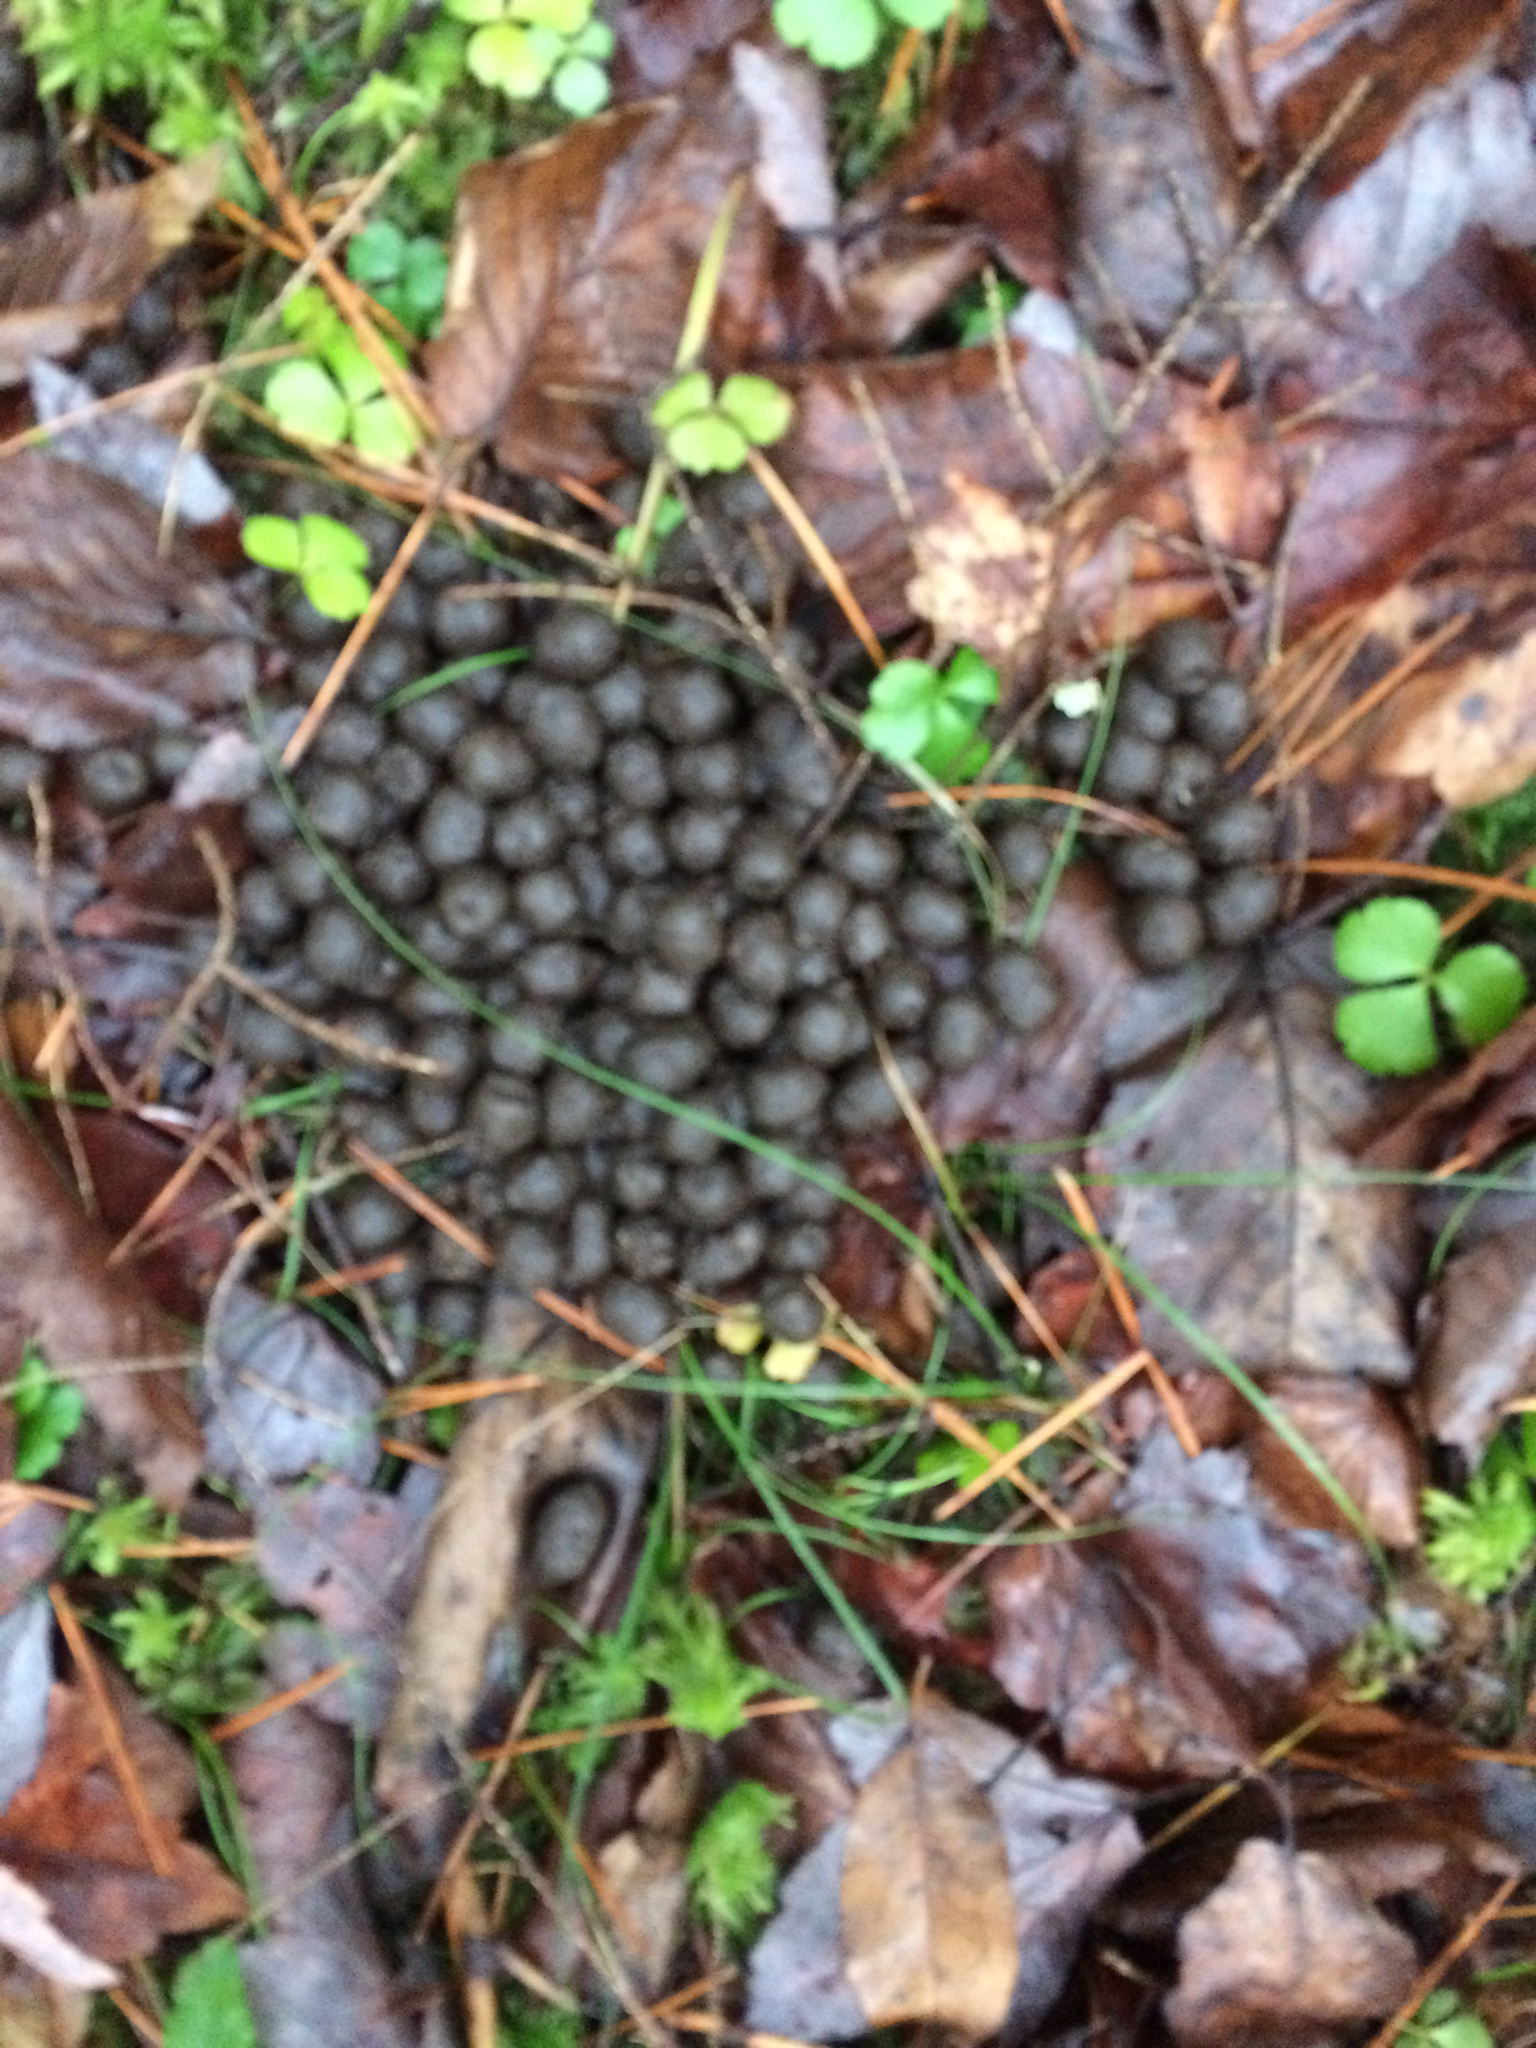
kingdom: Animalia
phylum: Chordata
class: Mammalia
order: Artiodactyla
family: Cervidae
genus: Odocoileus
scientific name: Odocoileus virginianus
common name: White-tailed deer
